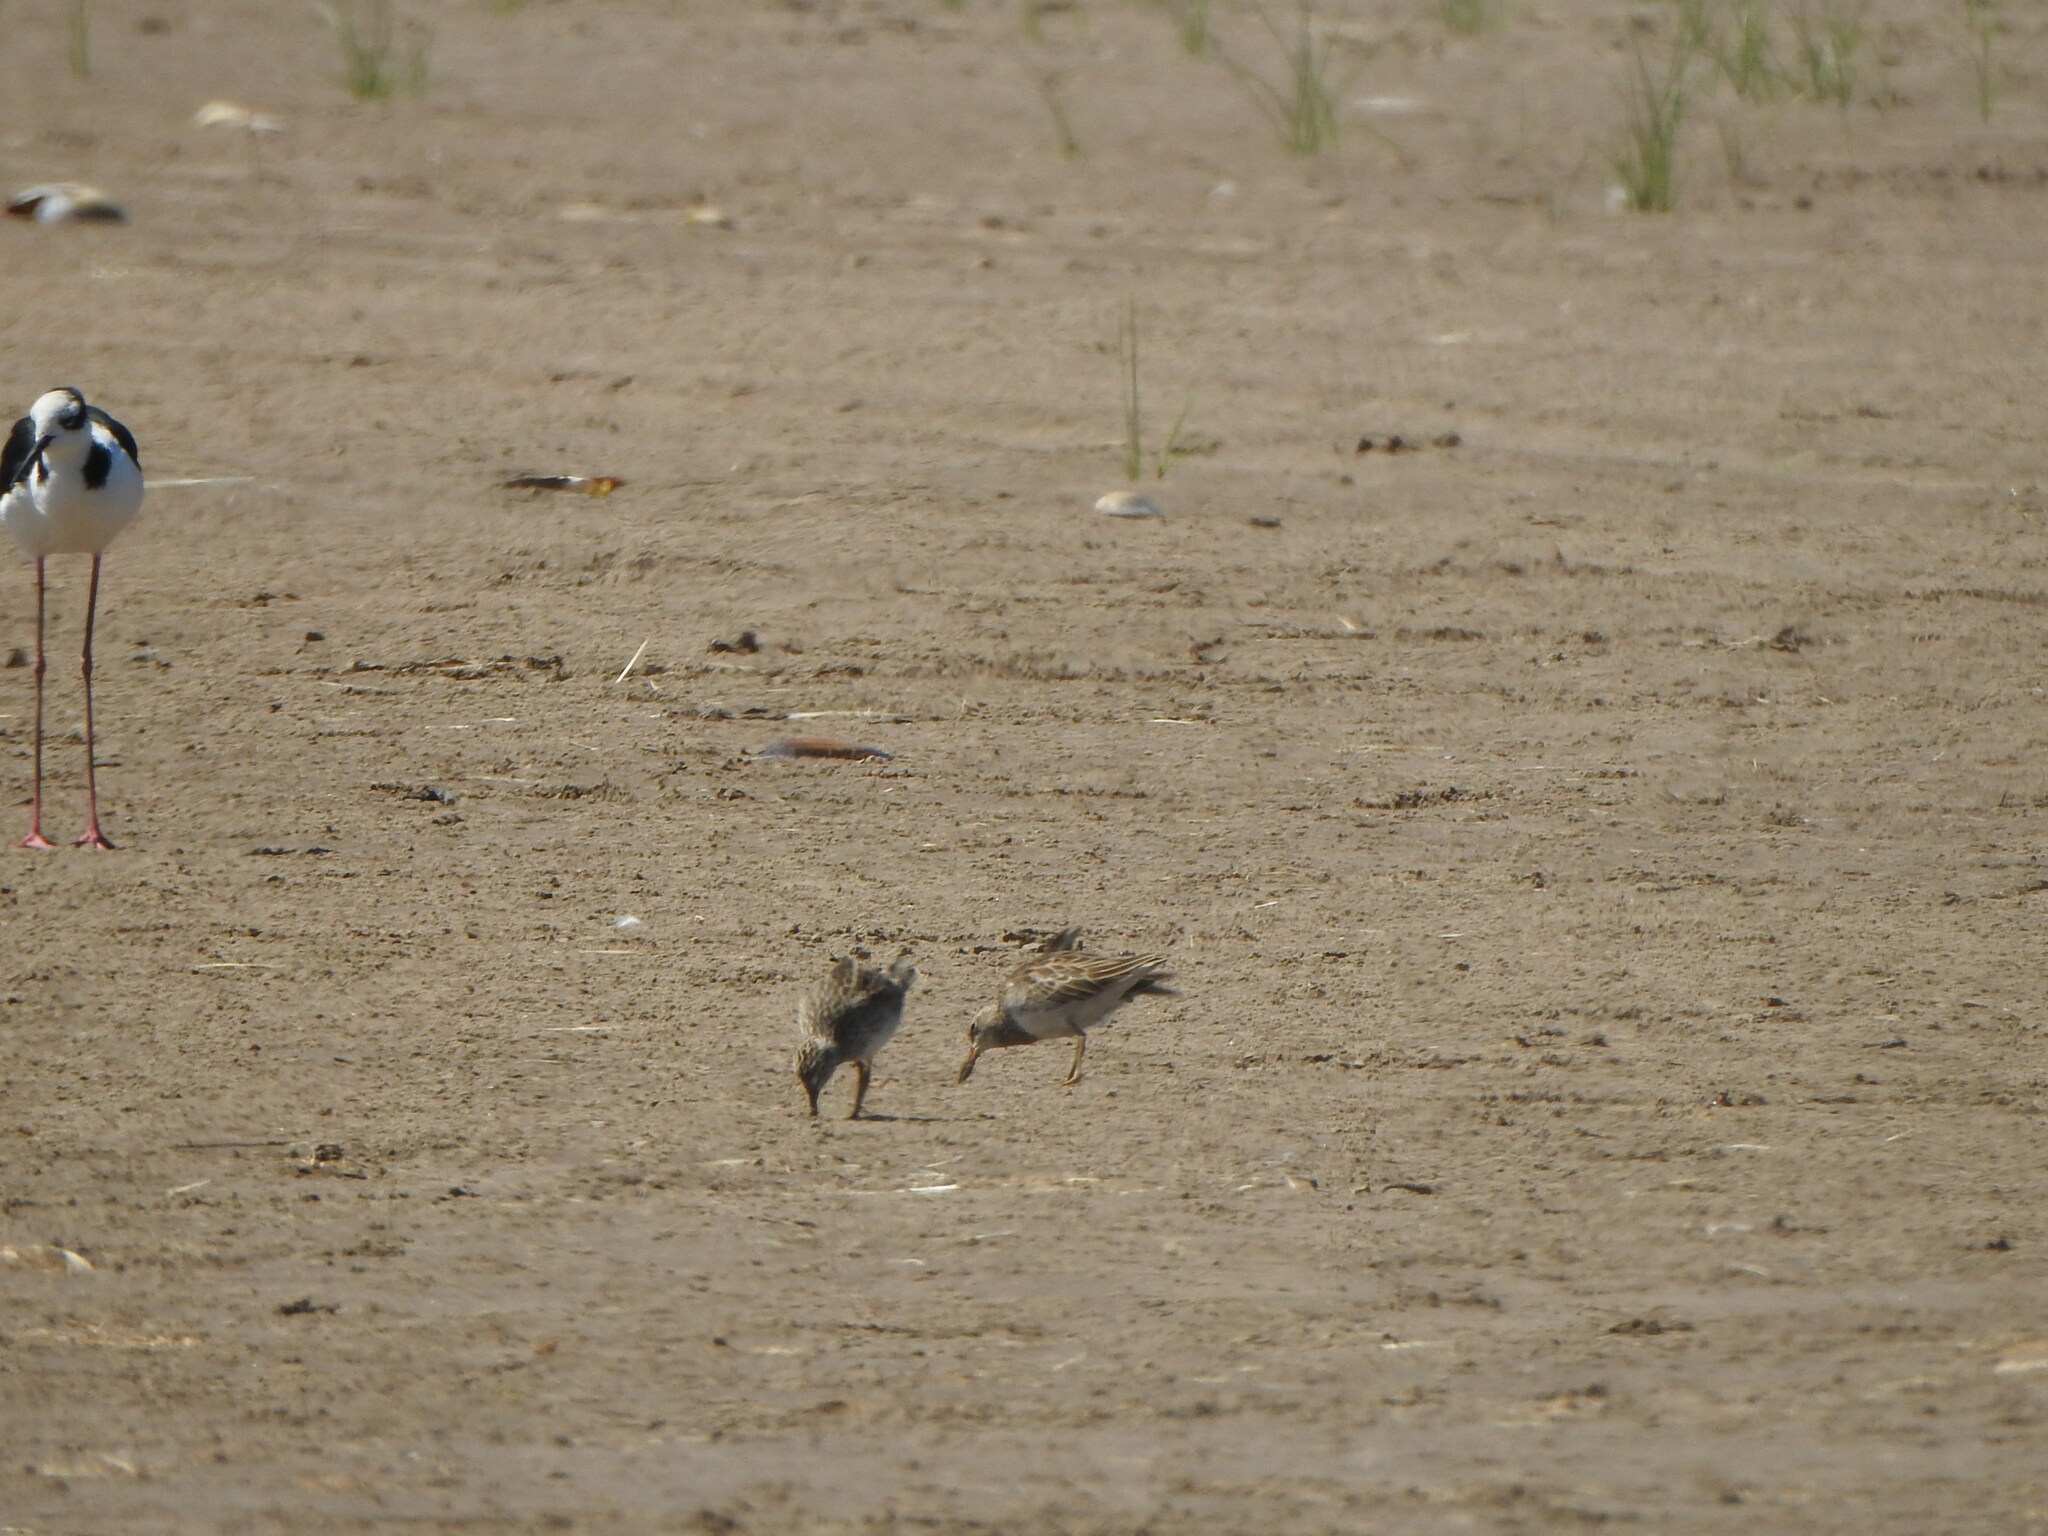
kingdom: Animalia
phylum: Chordata
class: Aves
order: Charadriiformes
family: Scolopacidae
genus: Calidris
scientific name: Calidris melanotos
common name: Pectoral sandpiper
